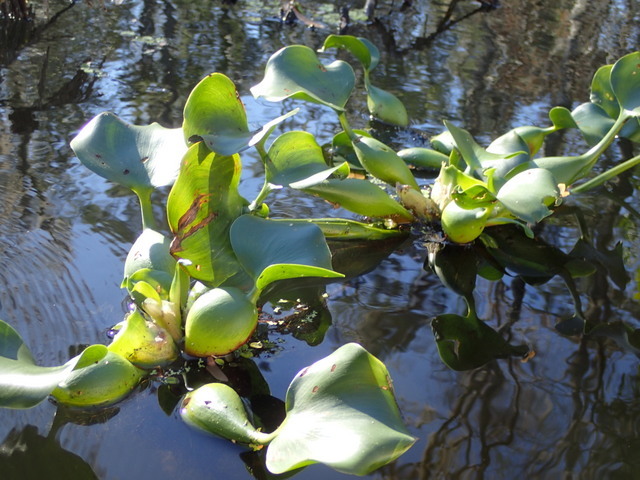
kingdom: Plantae
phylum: Tracheophyta
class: Liliopsida
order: Commelinales
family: Pontederiaceae
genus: Pontederia
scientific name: Pontederia crassipes
